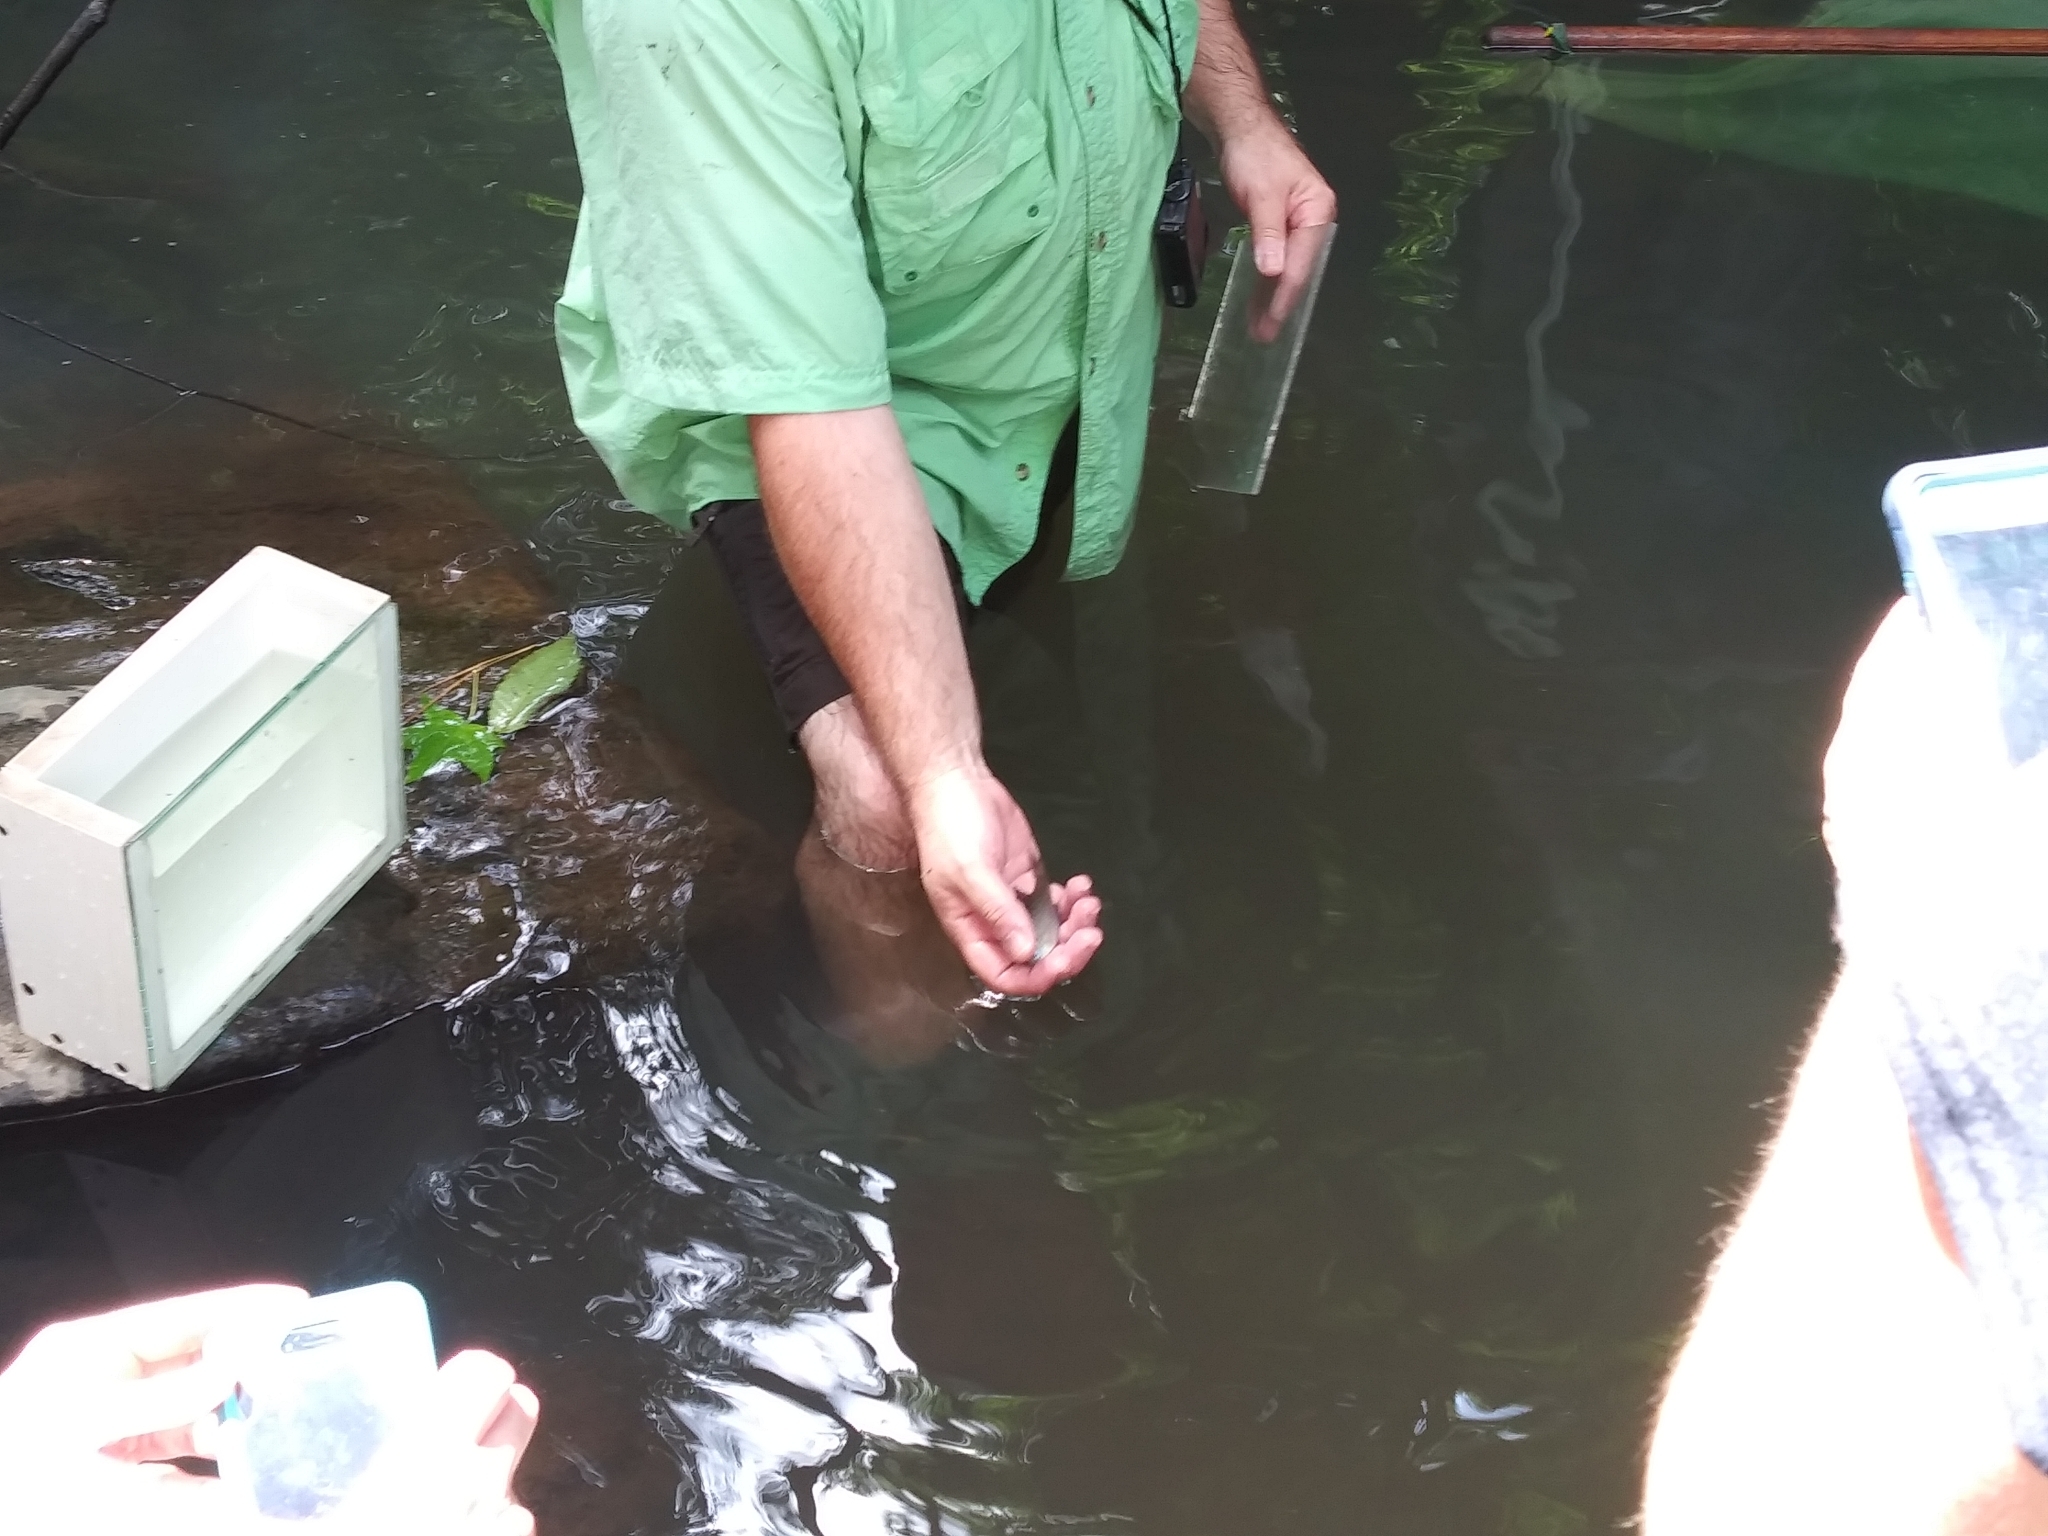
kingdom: Animalia
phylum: Chordata
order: Perciformes
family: Centrarchidae
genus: Lepomis
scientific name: Lepomis macrochirus
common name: Bluegill
